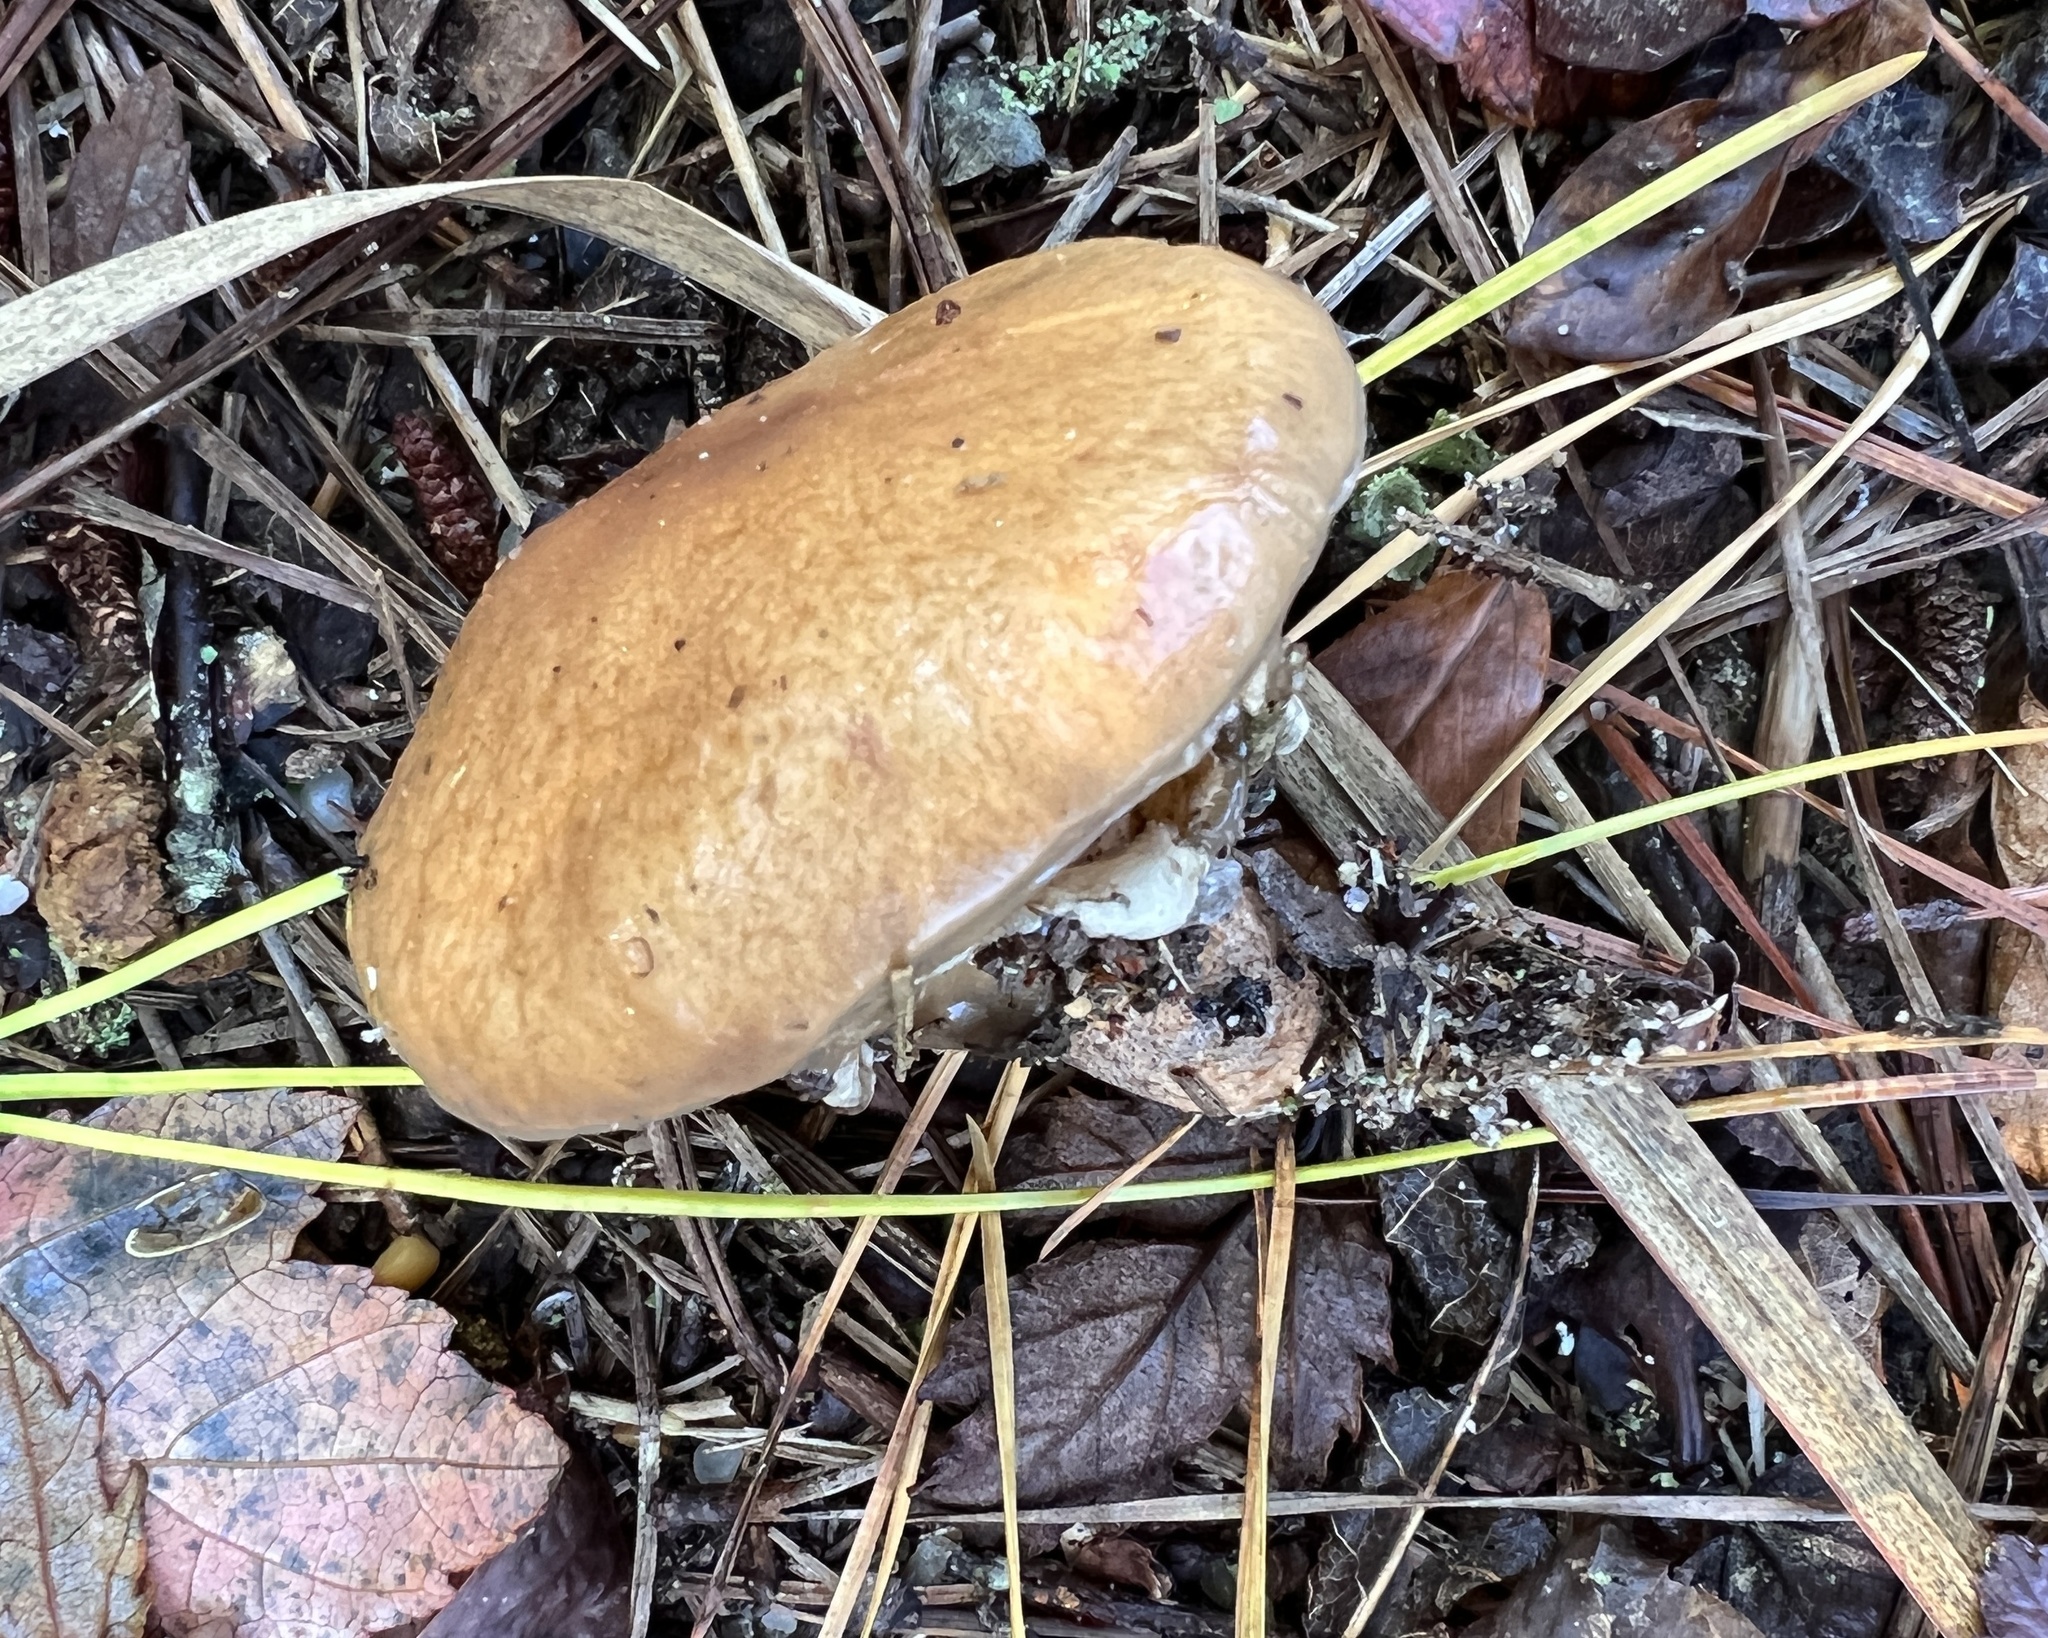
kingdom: Fungi
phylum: Basidiomycota
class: Agaricomycetes
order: Boletales
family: Suillaceae
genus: Suillus
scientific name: Suillus salmonicolor
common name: Slippery jill
